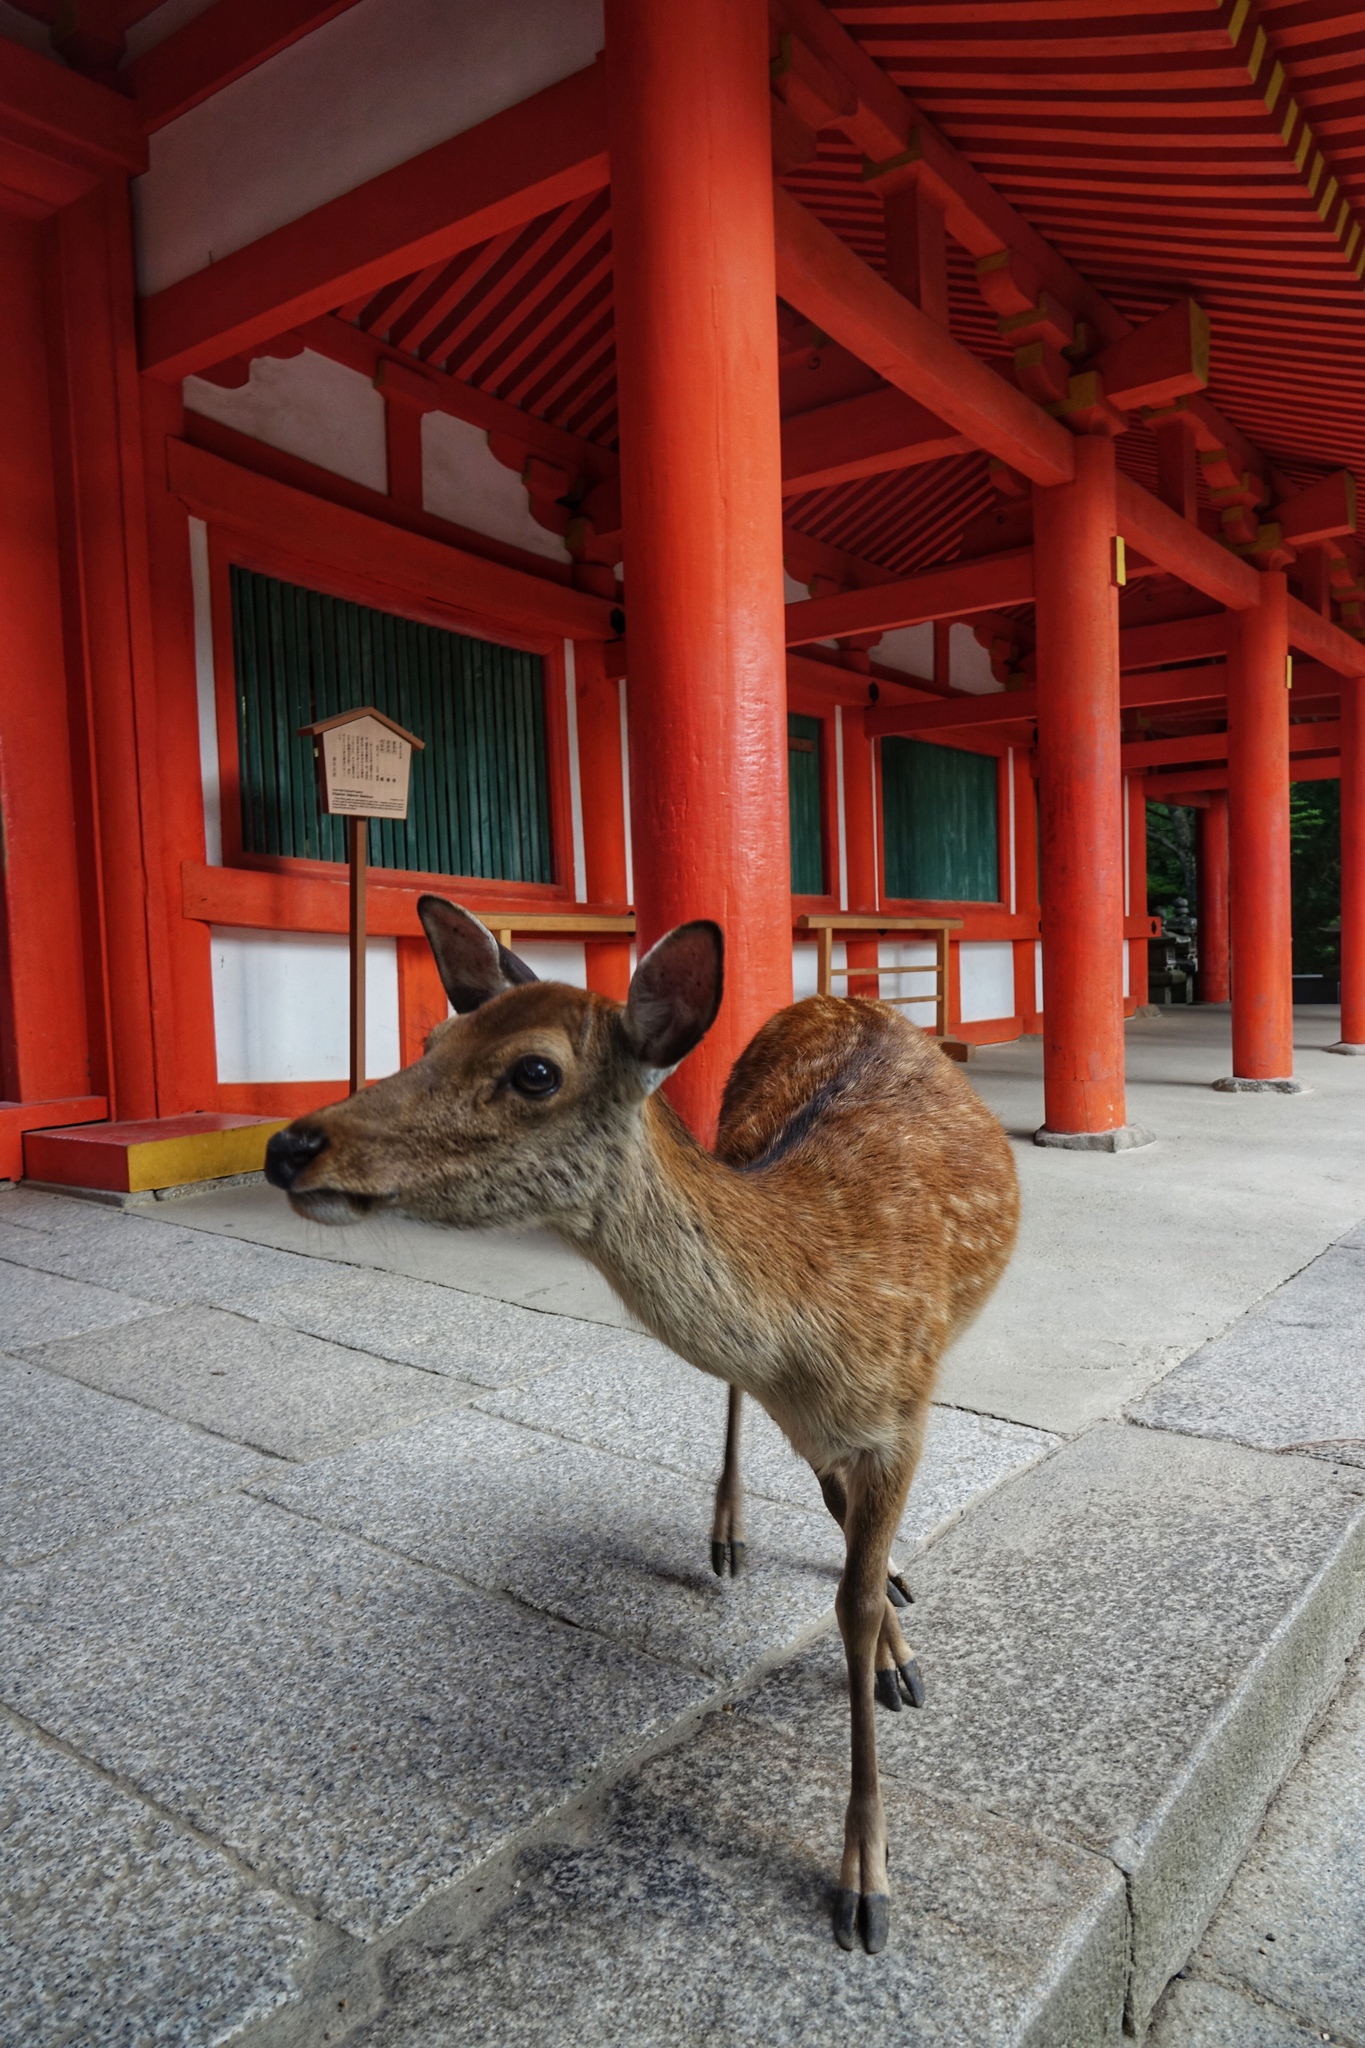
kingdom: Animalia
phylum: Chordata
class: Mammalia
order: Artiodactyla
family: Cervidae
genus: Cervus
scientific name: Cervus nippon
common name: Sika deer
